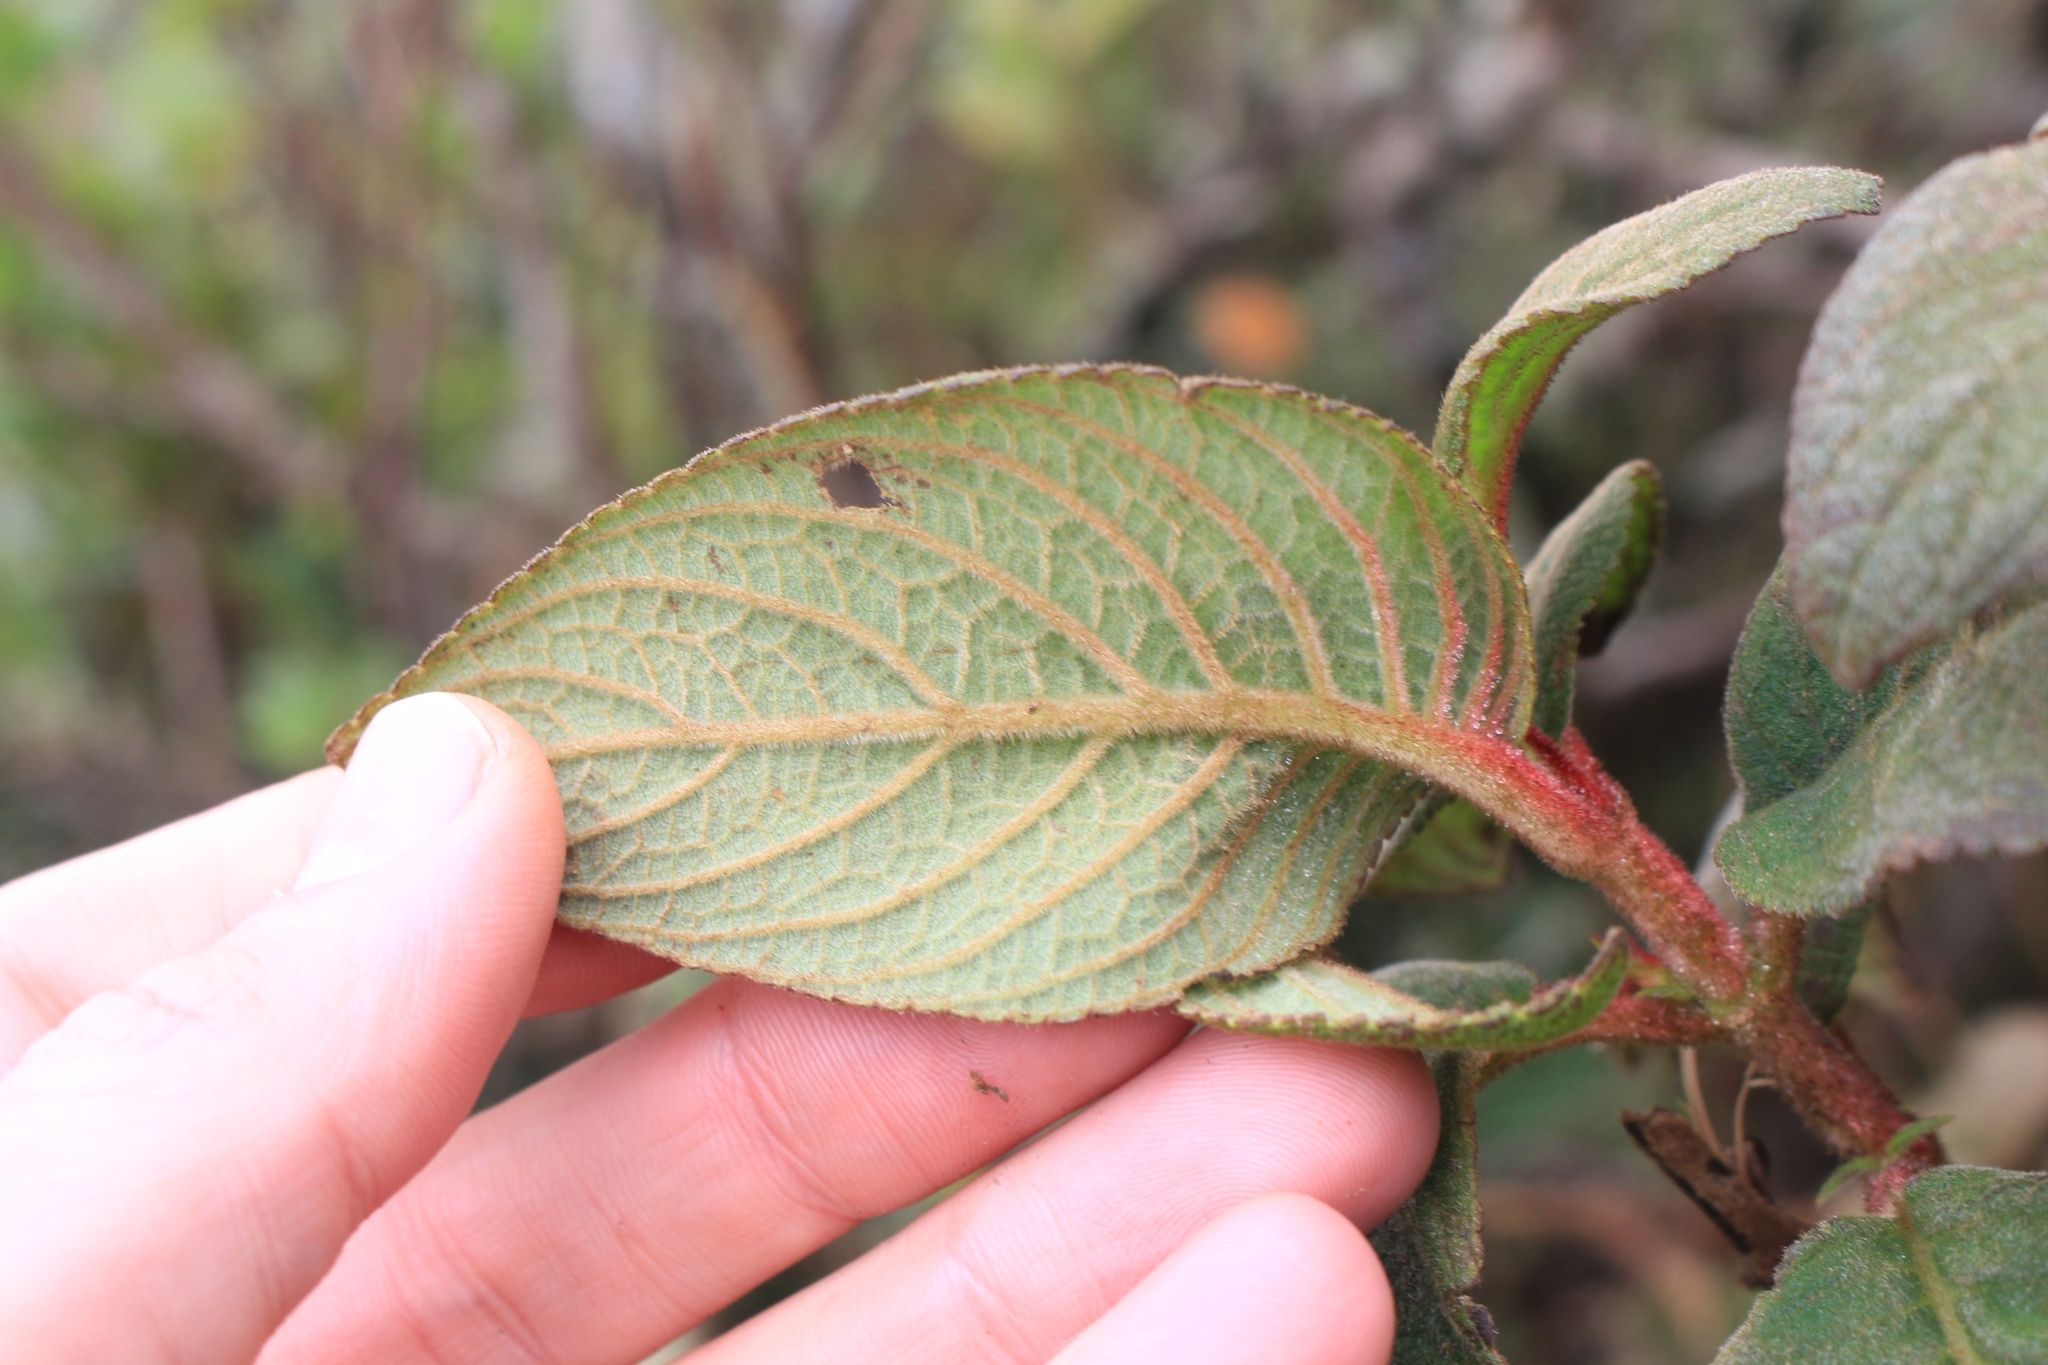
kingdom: Plantae
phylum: Tracheophyta
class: Magnoliopsida
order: Lamiales
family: Gesneriaceae
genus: Moussonia
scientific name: Moussonia strigosa
